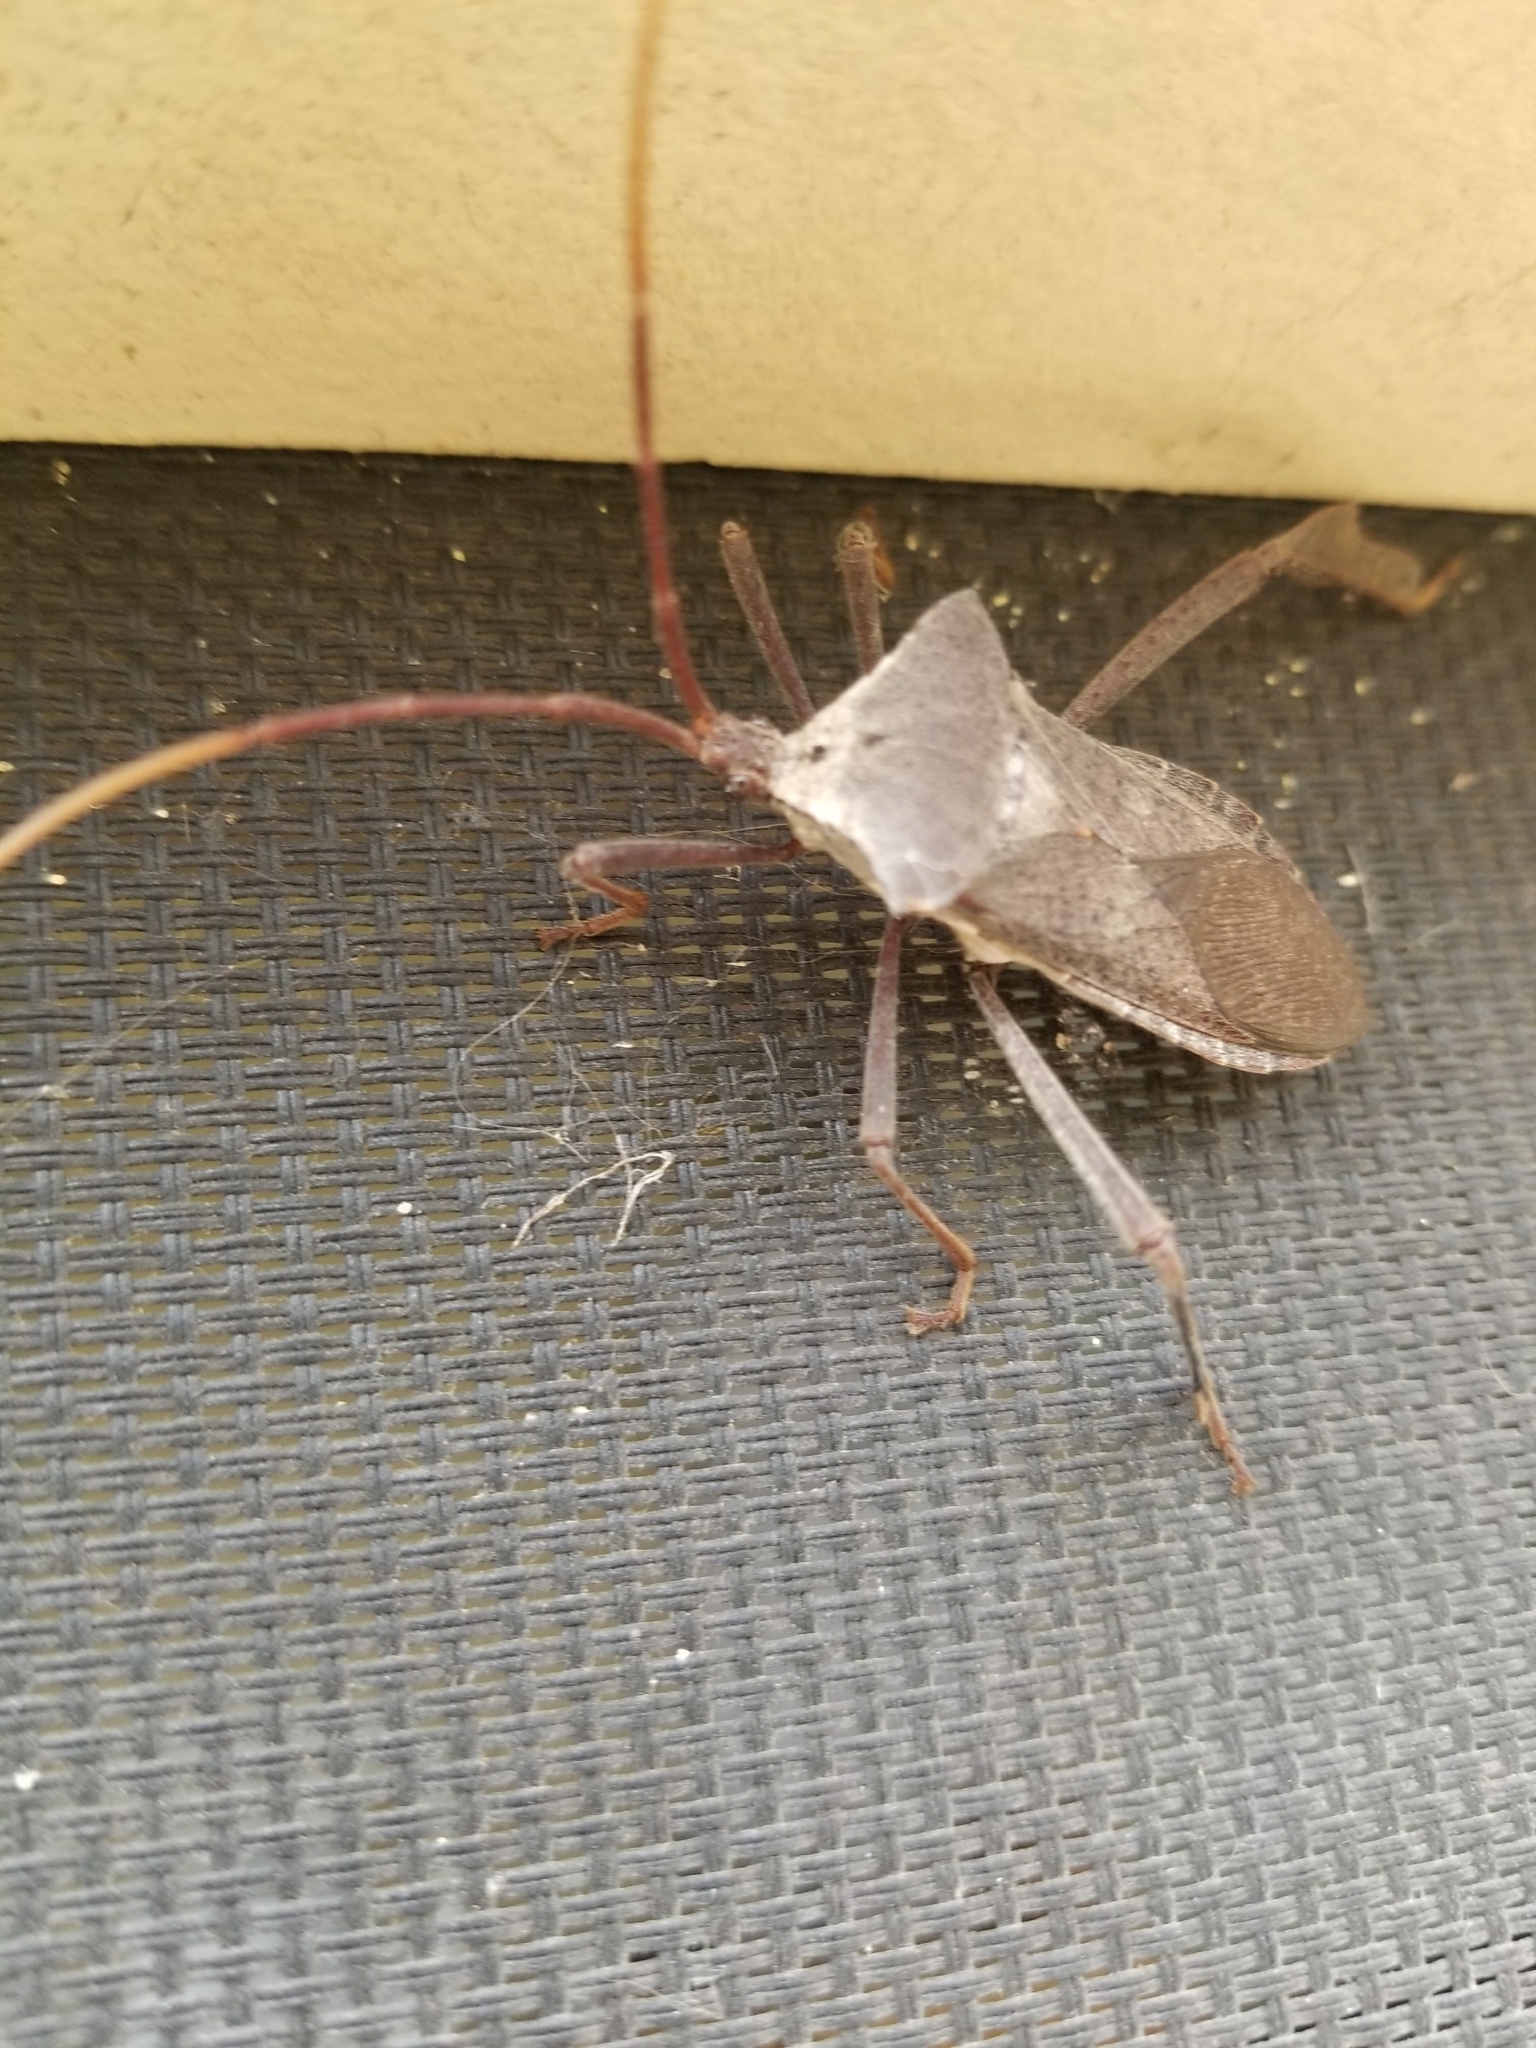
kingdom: Animalia
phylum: Arthropoda
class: Insecta
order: Hemiptera
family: Coreidae
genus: Acanthocephala
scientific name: Acanthocephala declivis
